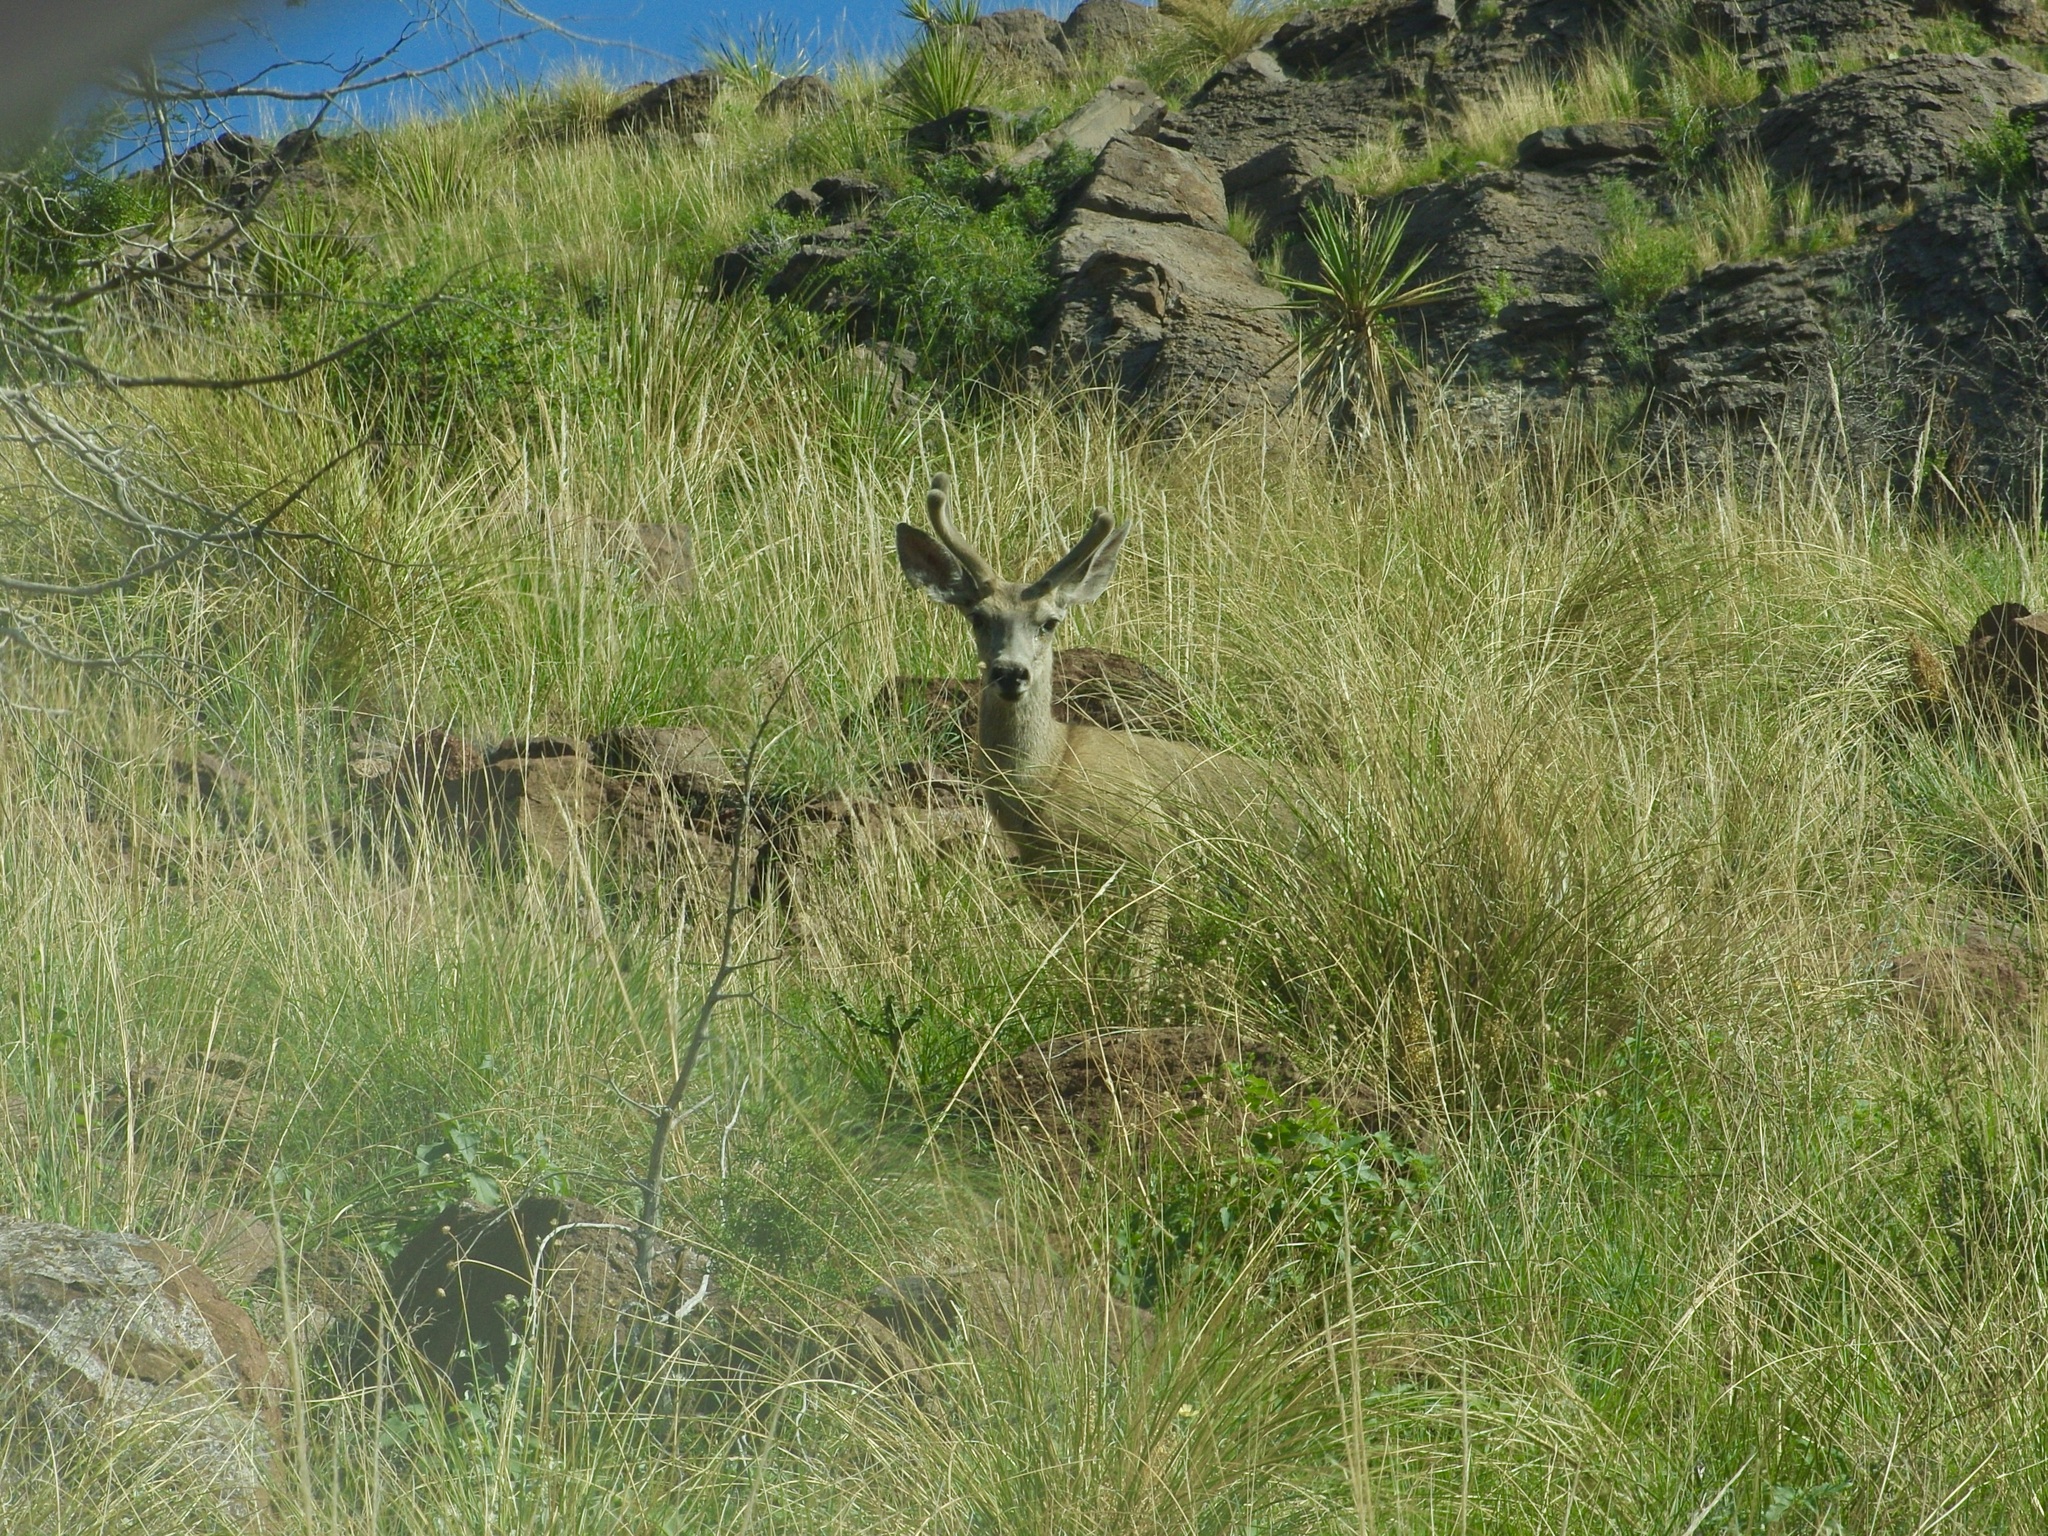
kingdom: Animalia
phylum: Chordata
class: Mammalia
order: Artiodactyla
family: Cervidae
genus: Odocoileus
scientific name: Odocoileus hemionus
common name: Mule deer
